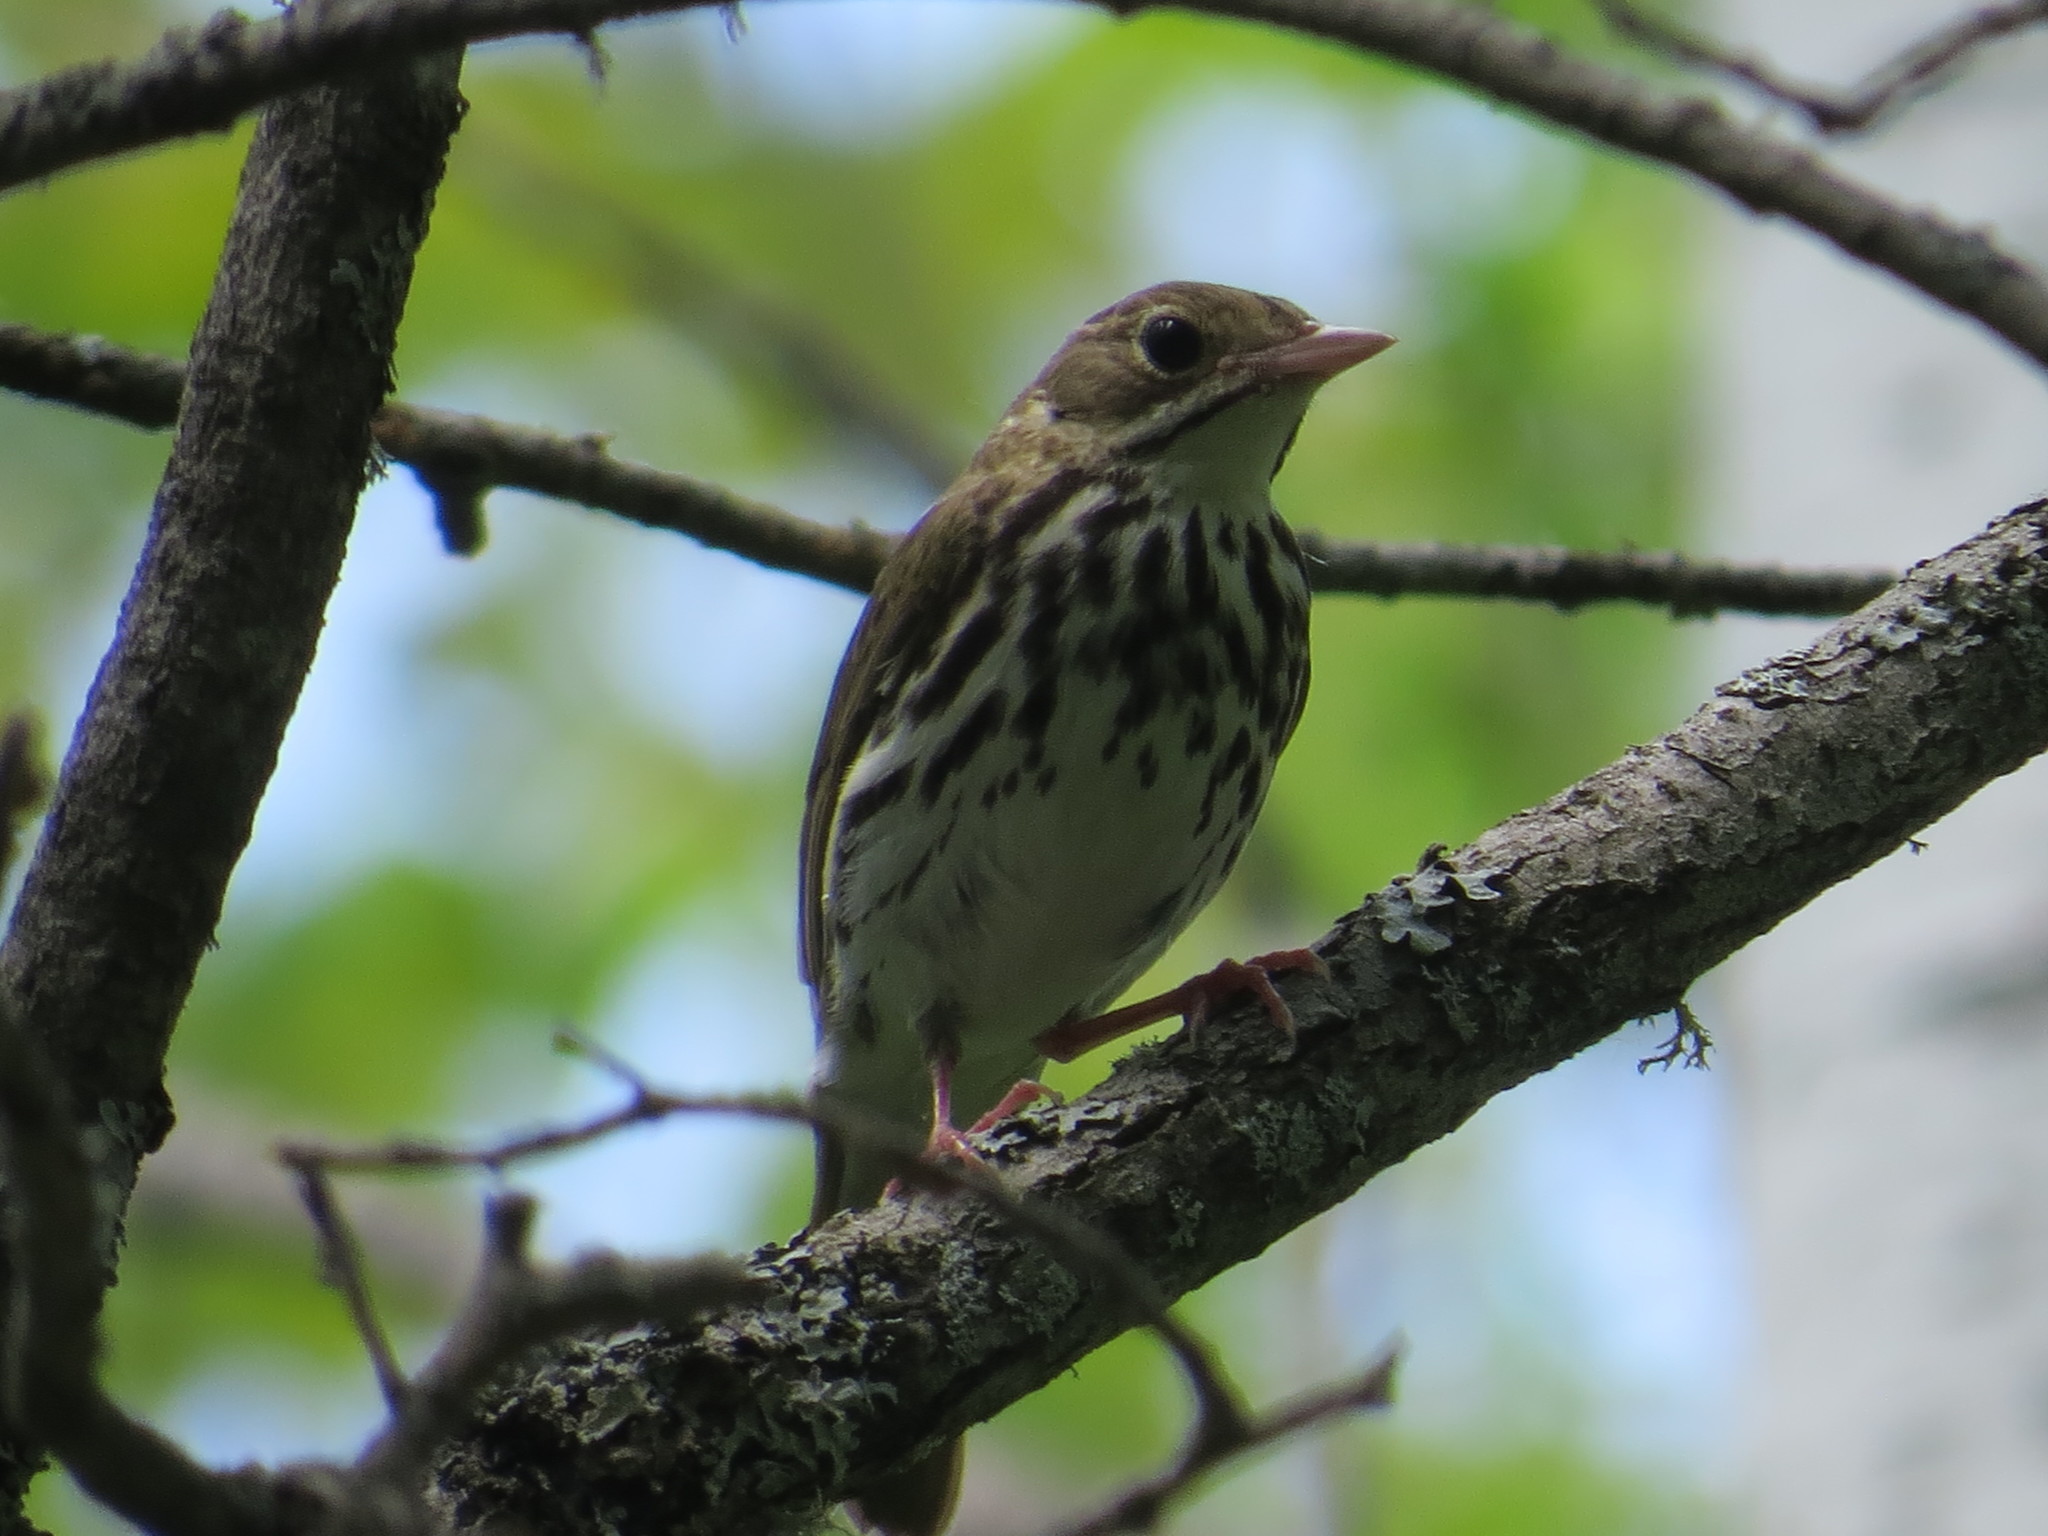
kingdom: Animalia
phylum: Chordata
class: Aves
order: Passeriformes
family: Parulidae
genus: Seiurus
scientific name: Seiurus aurocapilla
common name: Ovenbird
